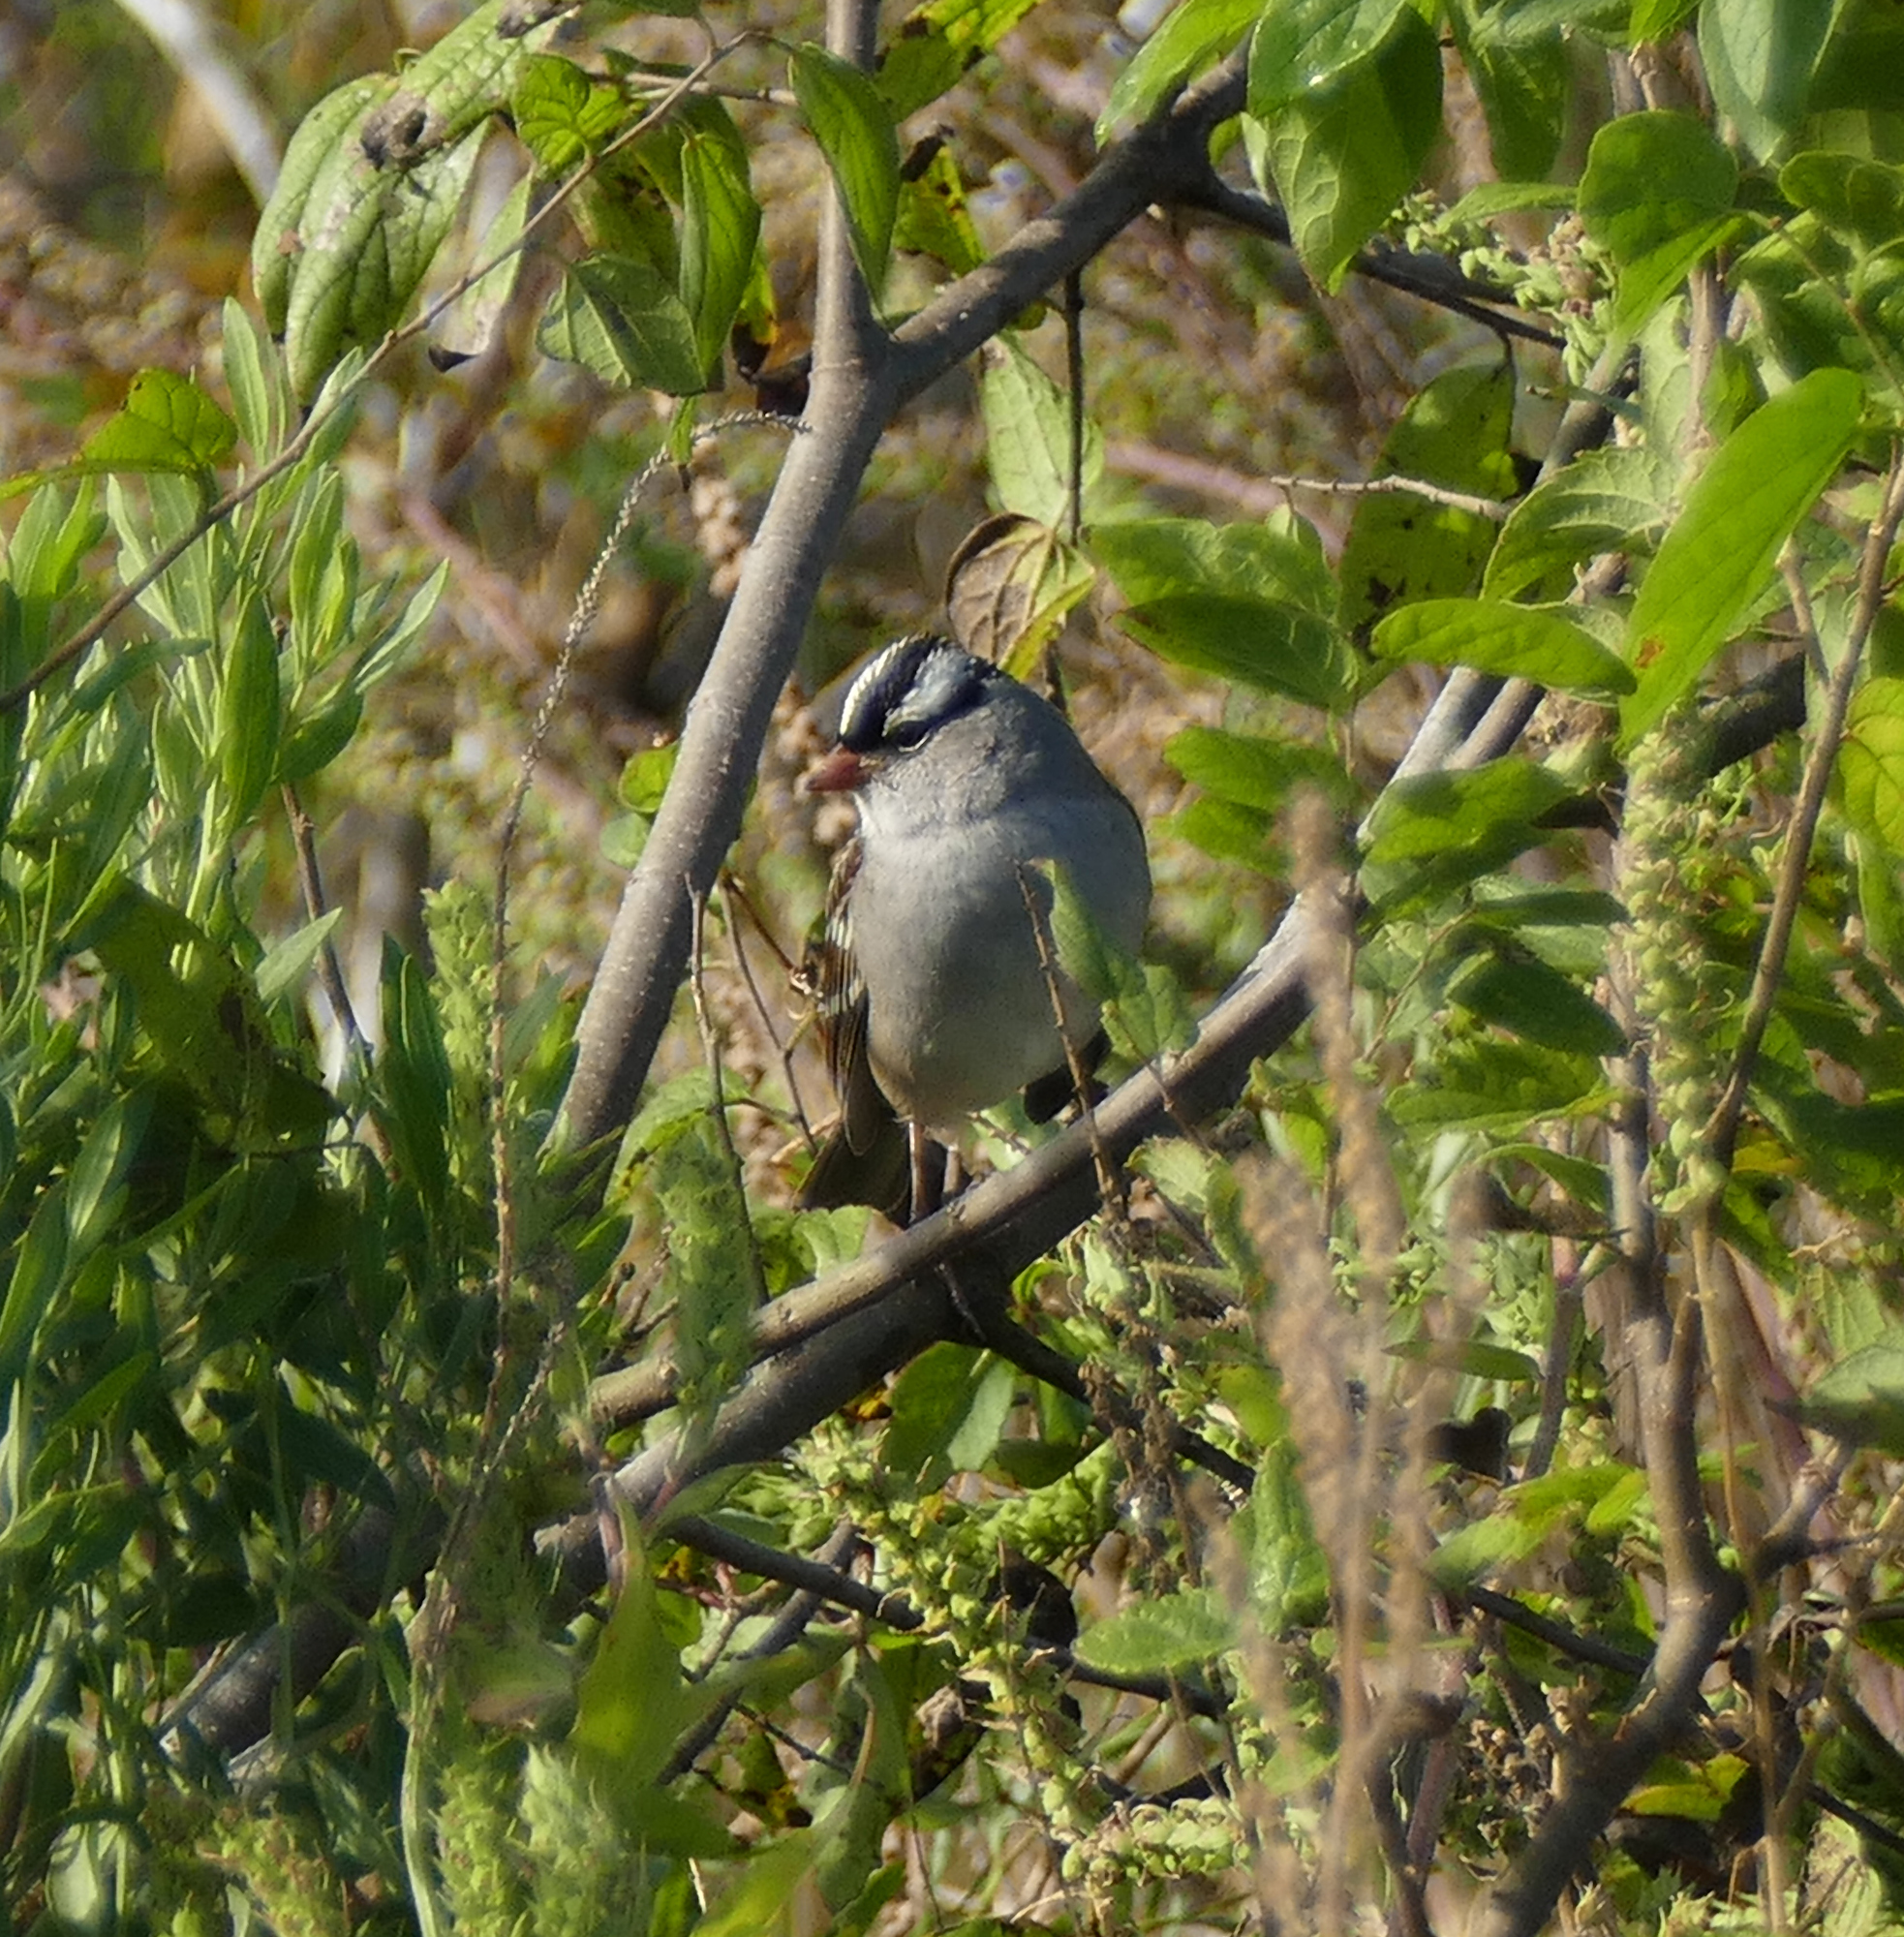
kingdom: Animalia
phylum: Chordata
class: Aves
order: Passeriformes
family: Passerellidae
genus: Zonotrichia
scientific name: Zonotrichia leucophrys
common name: White-crowned sparrow
